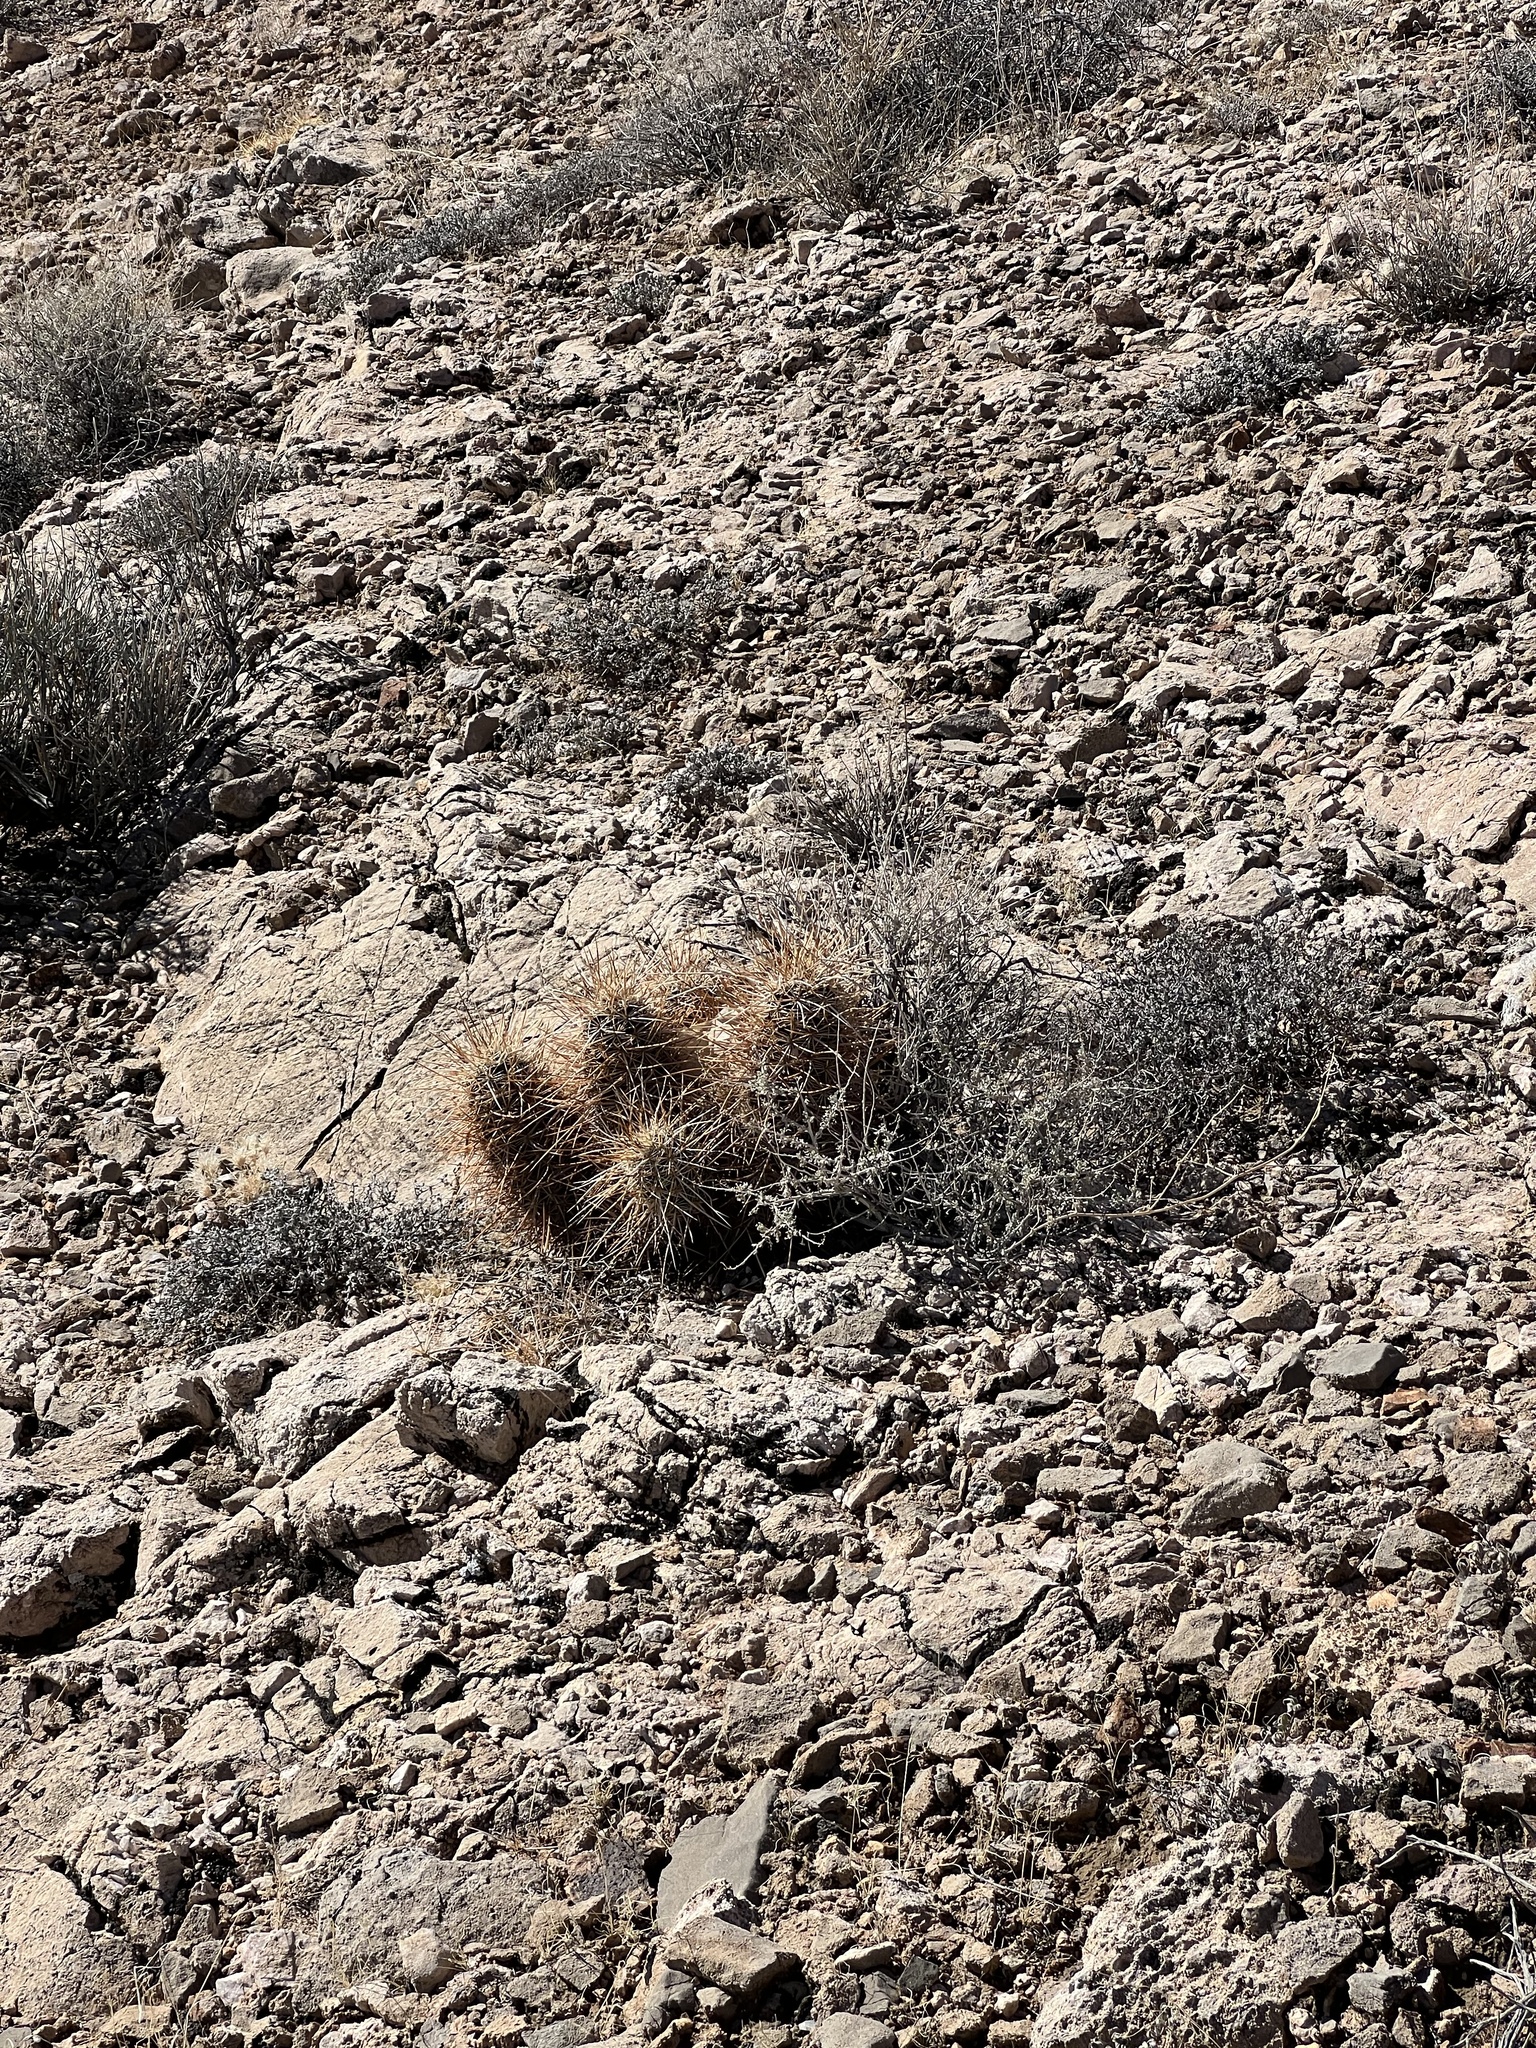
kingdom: Plantae
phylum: Tracheophyta
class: Magnoliopsida
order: Caryophyllales
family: Cactaceae
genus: Echinocereus
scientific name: Echinocereus engelmannii
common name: Engelmann's hedgehog cactus
